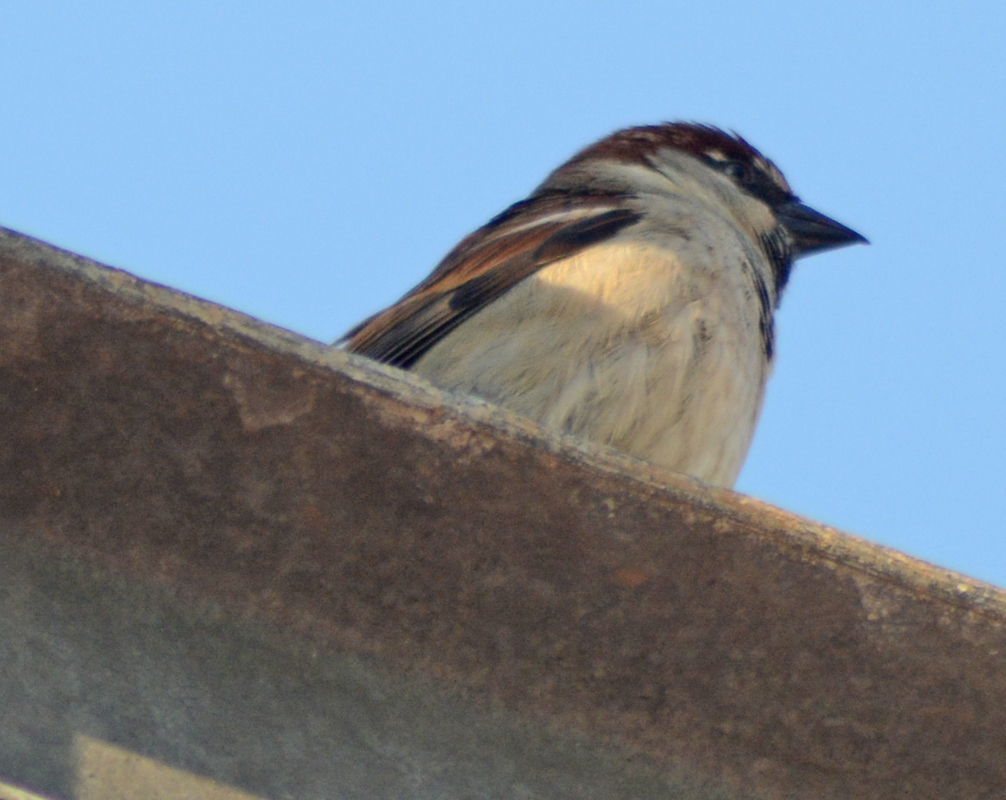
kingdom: Animalia
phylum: Chordata
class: Aves
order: Passeriformes
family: Passeridae
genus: Passer
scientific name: Passer domesticus
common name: House sparrow
